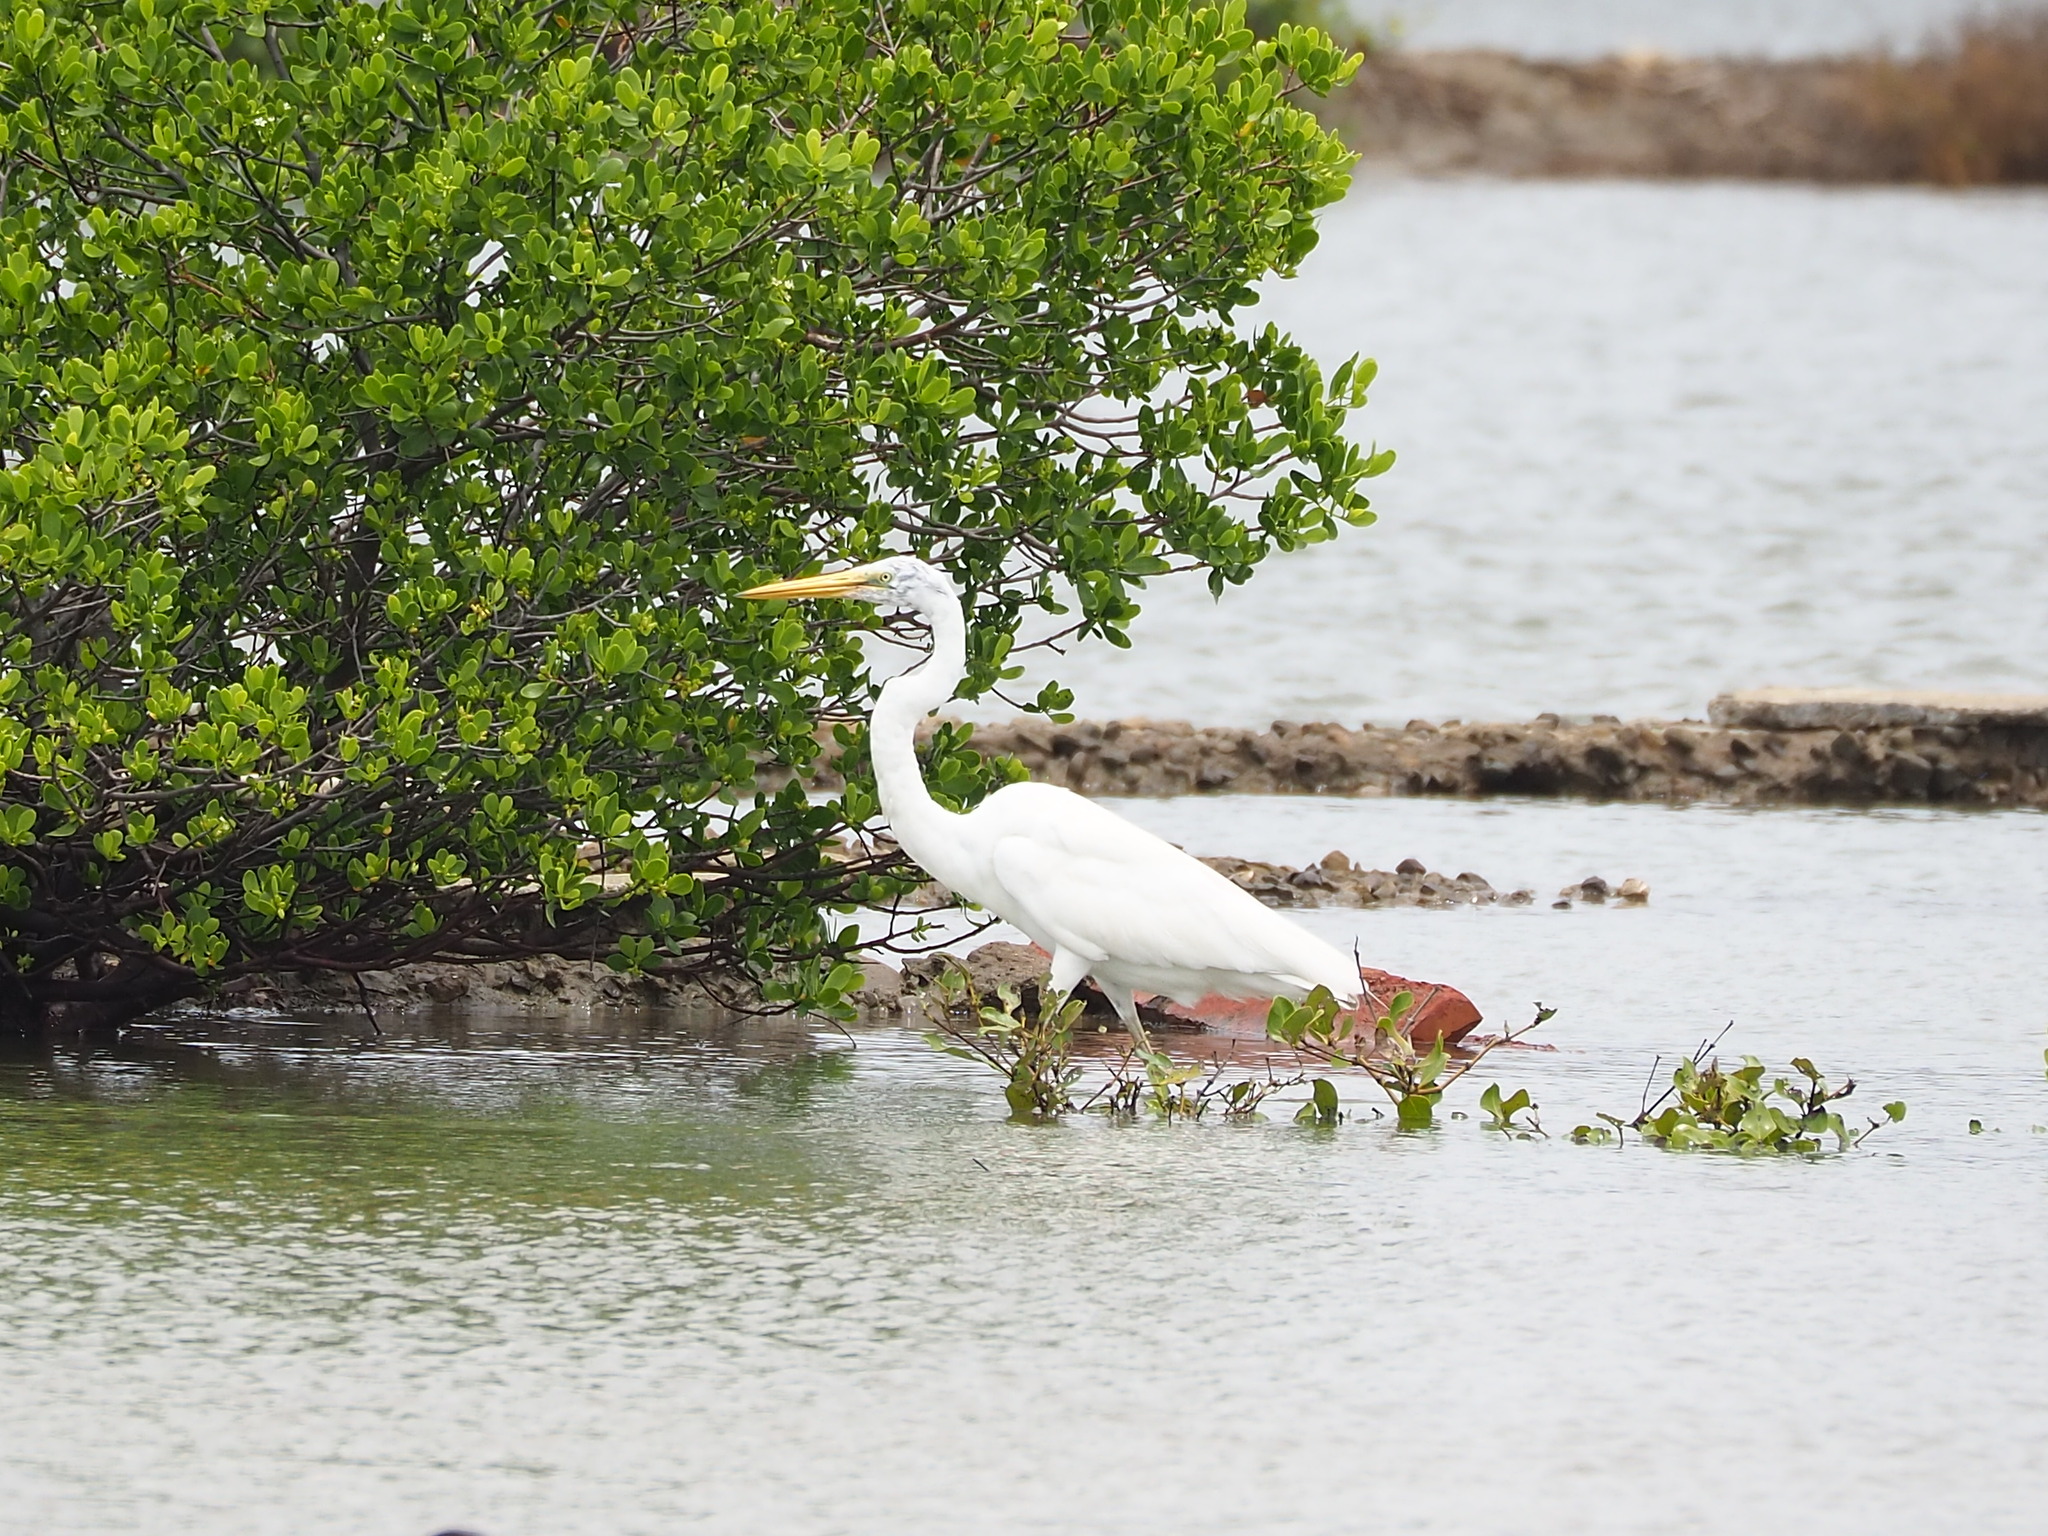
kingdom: Animalia
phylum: Chordata
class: Aves
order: Pelecaniformes
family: Ardeidae
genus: Ardea
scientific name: Ardea alba
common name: Great egret
